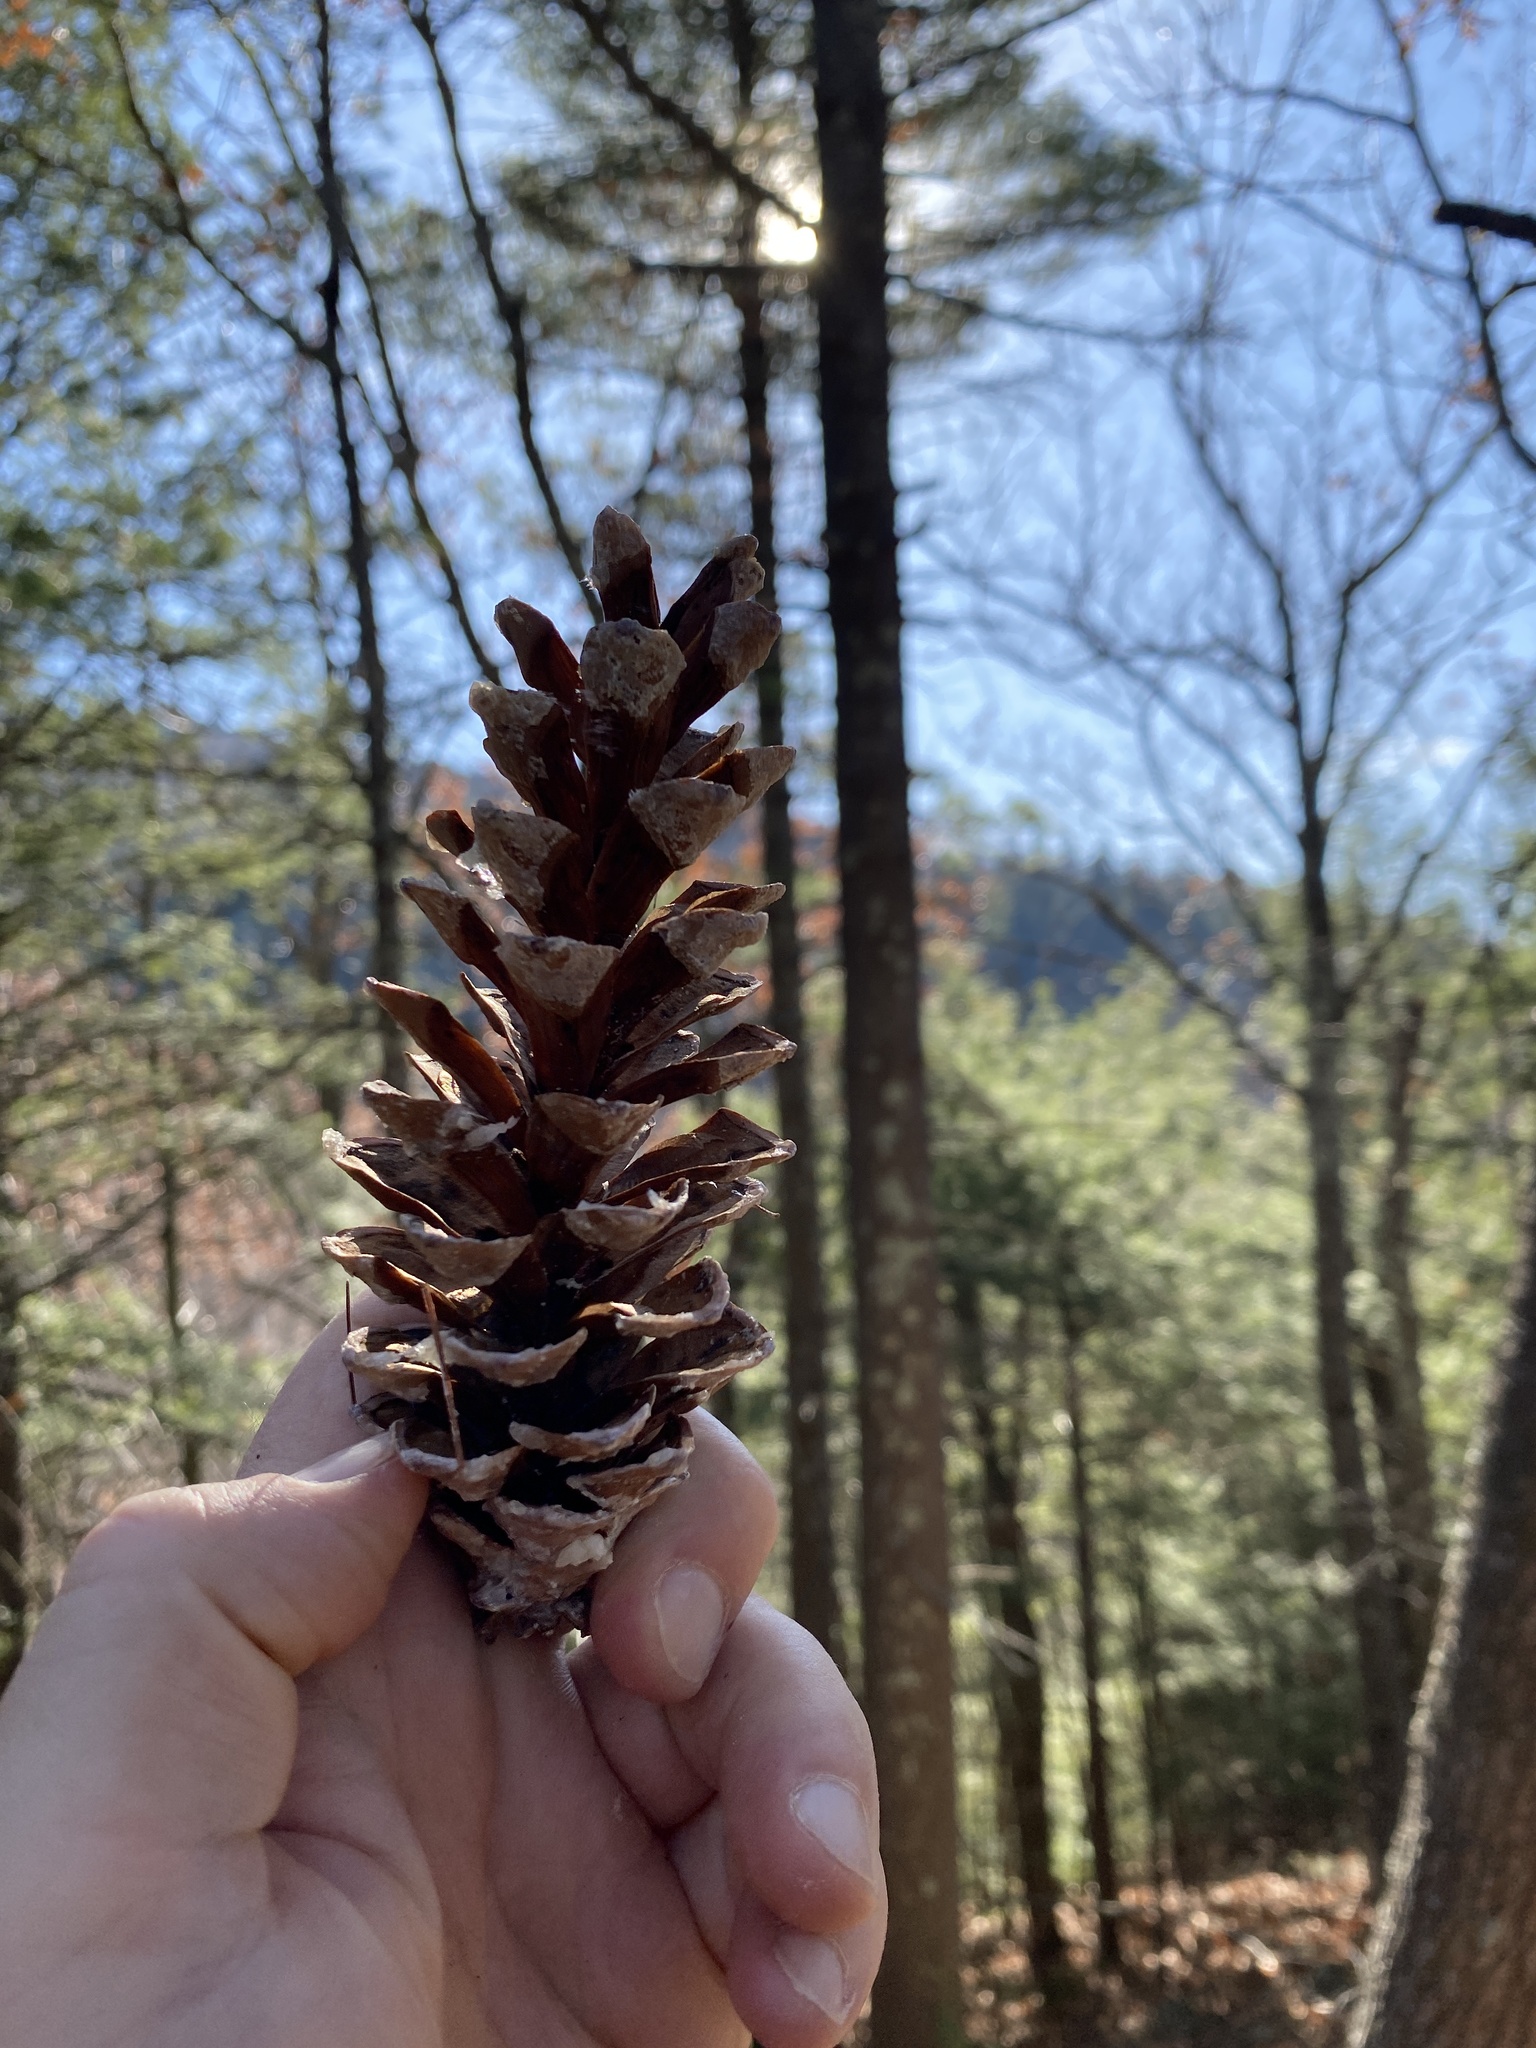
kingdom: Plantae
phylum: Tracheophyta
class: Pinopsida
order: Pinales
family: Pinaceae
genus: Pinus
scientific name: Pinus strobus
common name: Weymouth pine
